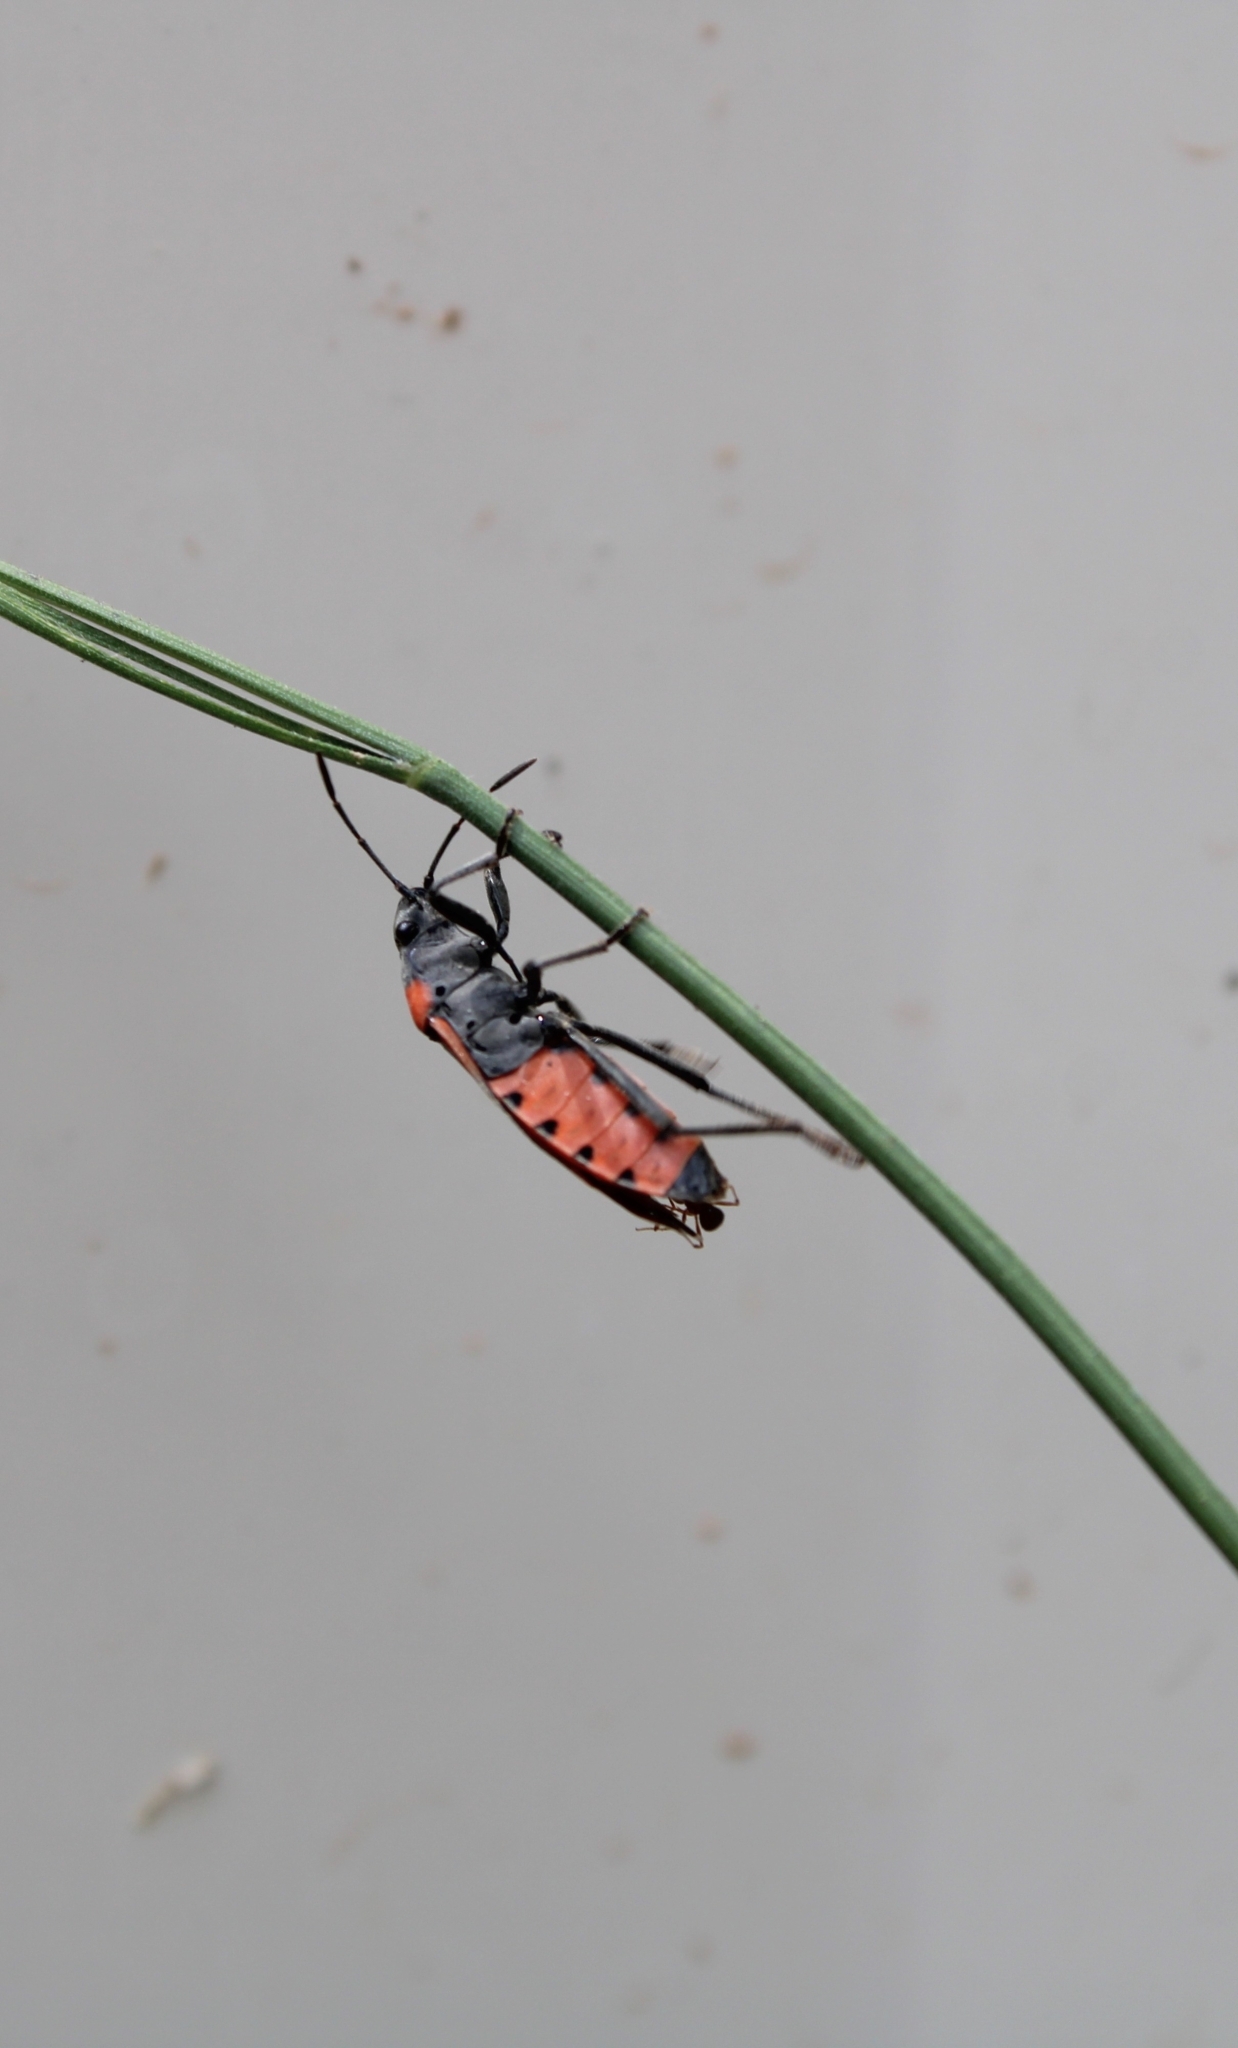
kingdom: Animalia
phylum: Arthropoda
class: Insecta
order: Hemiptera
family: Lygaeidae
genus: Lygaeus
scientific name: Lygaeus kalmii
